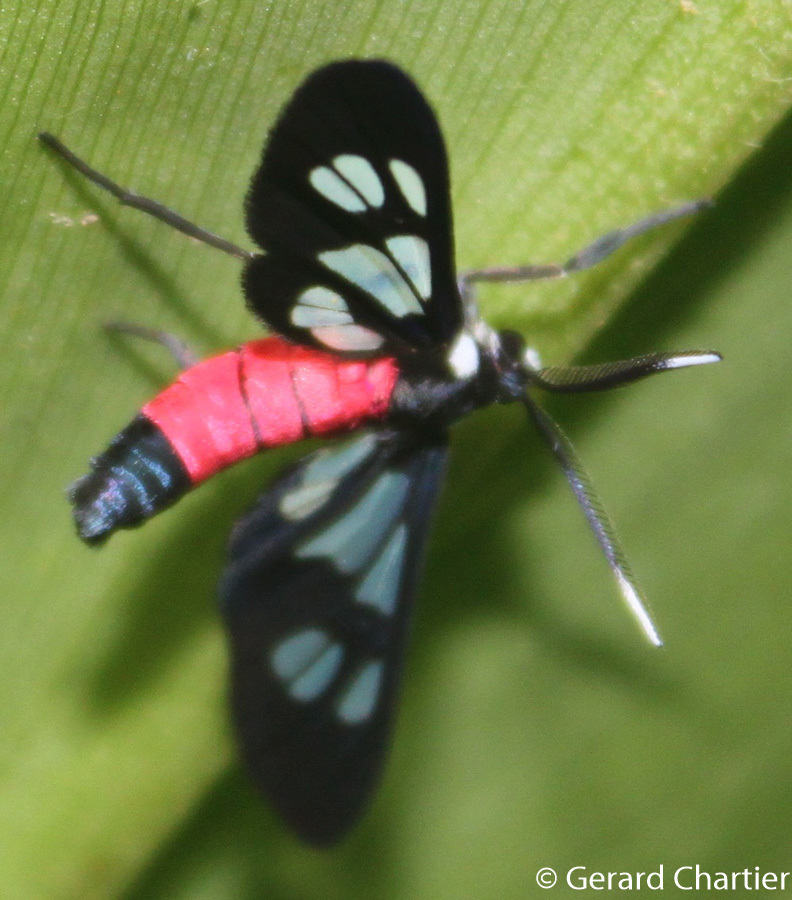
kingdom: Animalia
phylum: Arthropoda
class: Insecta
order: Lepidoptera
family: Erebidae
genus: Amata
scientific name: Amata fouqueti
